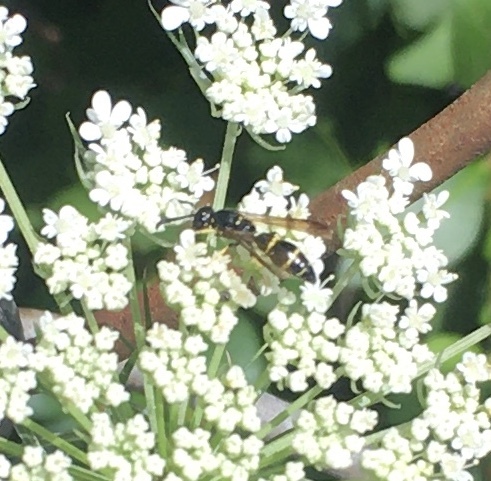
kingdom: Animalia
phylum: Arthropoda
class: Insecta
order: Hymenoptera
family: Eumenidae
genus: Symmorphus
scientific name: Symmorphus
